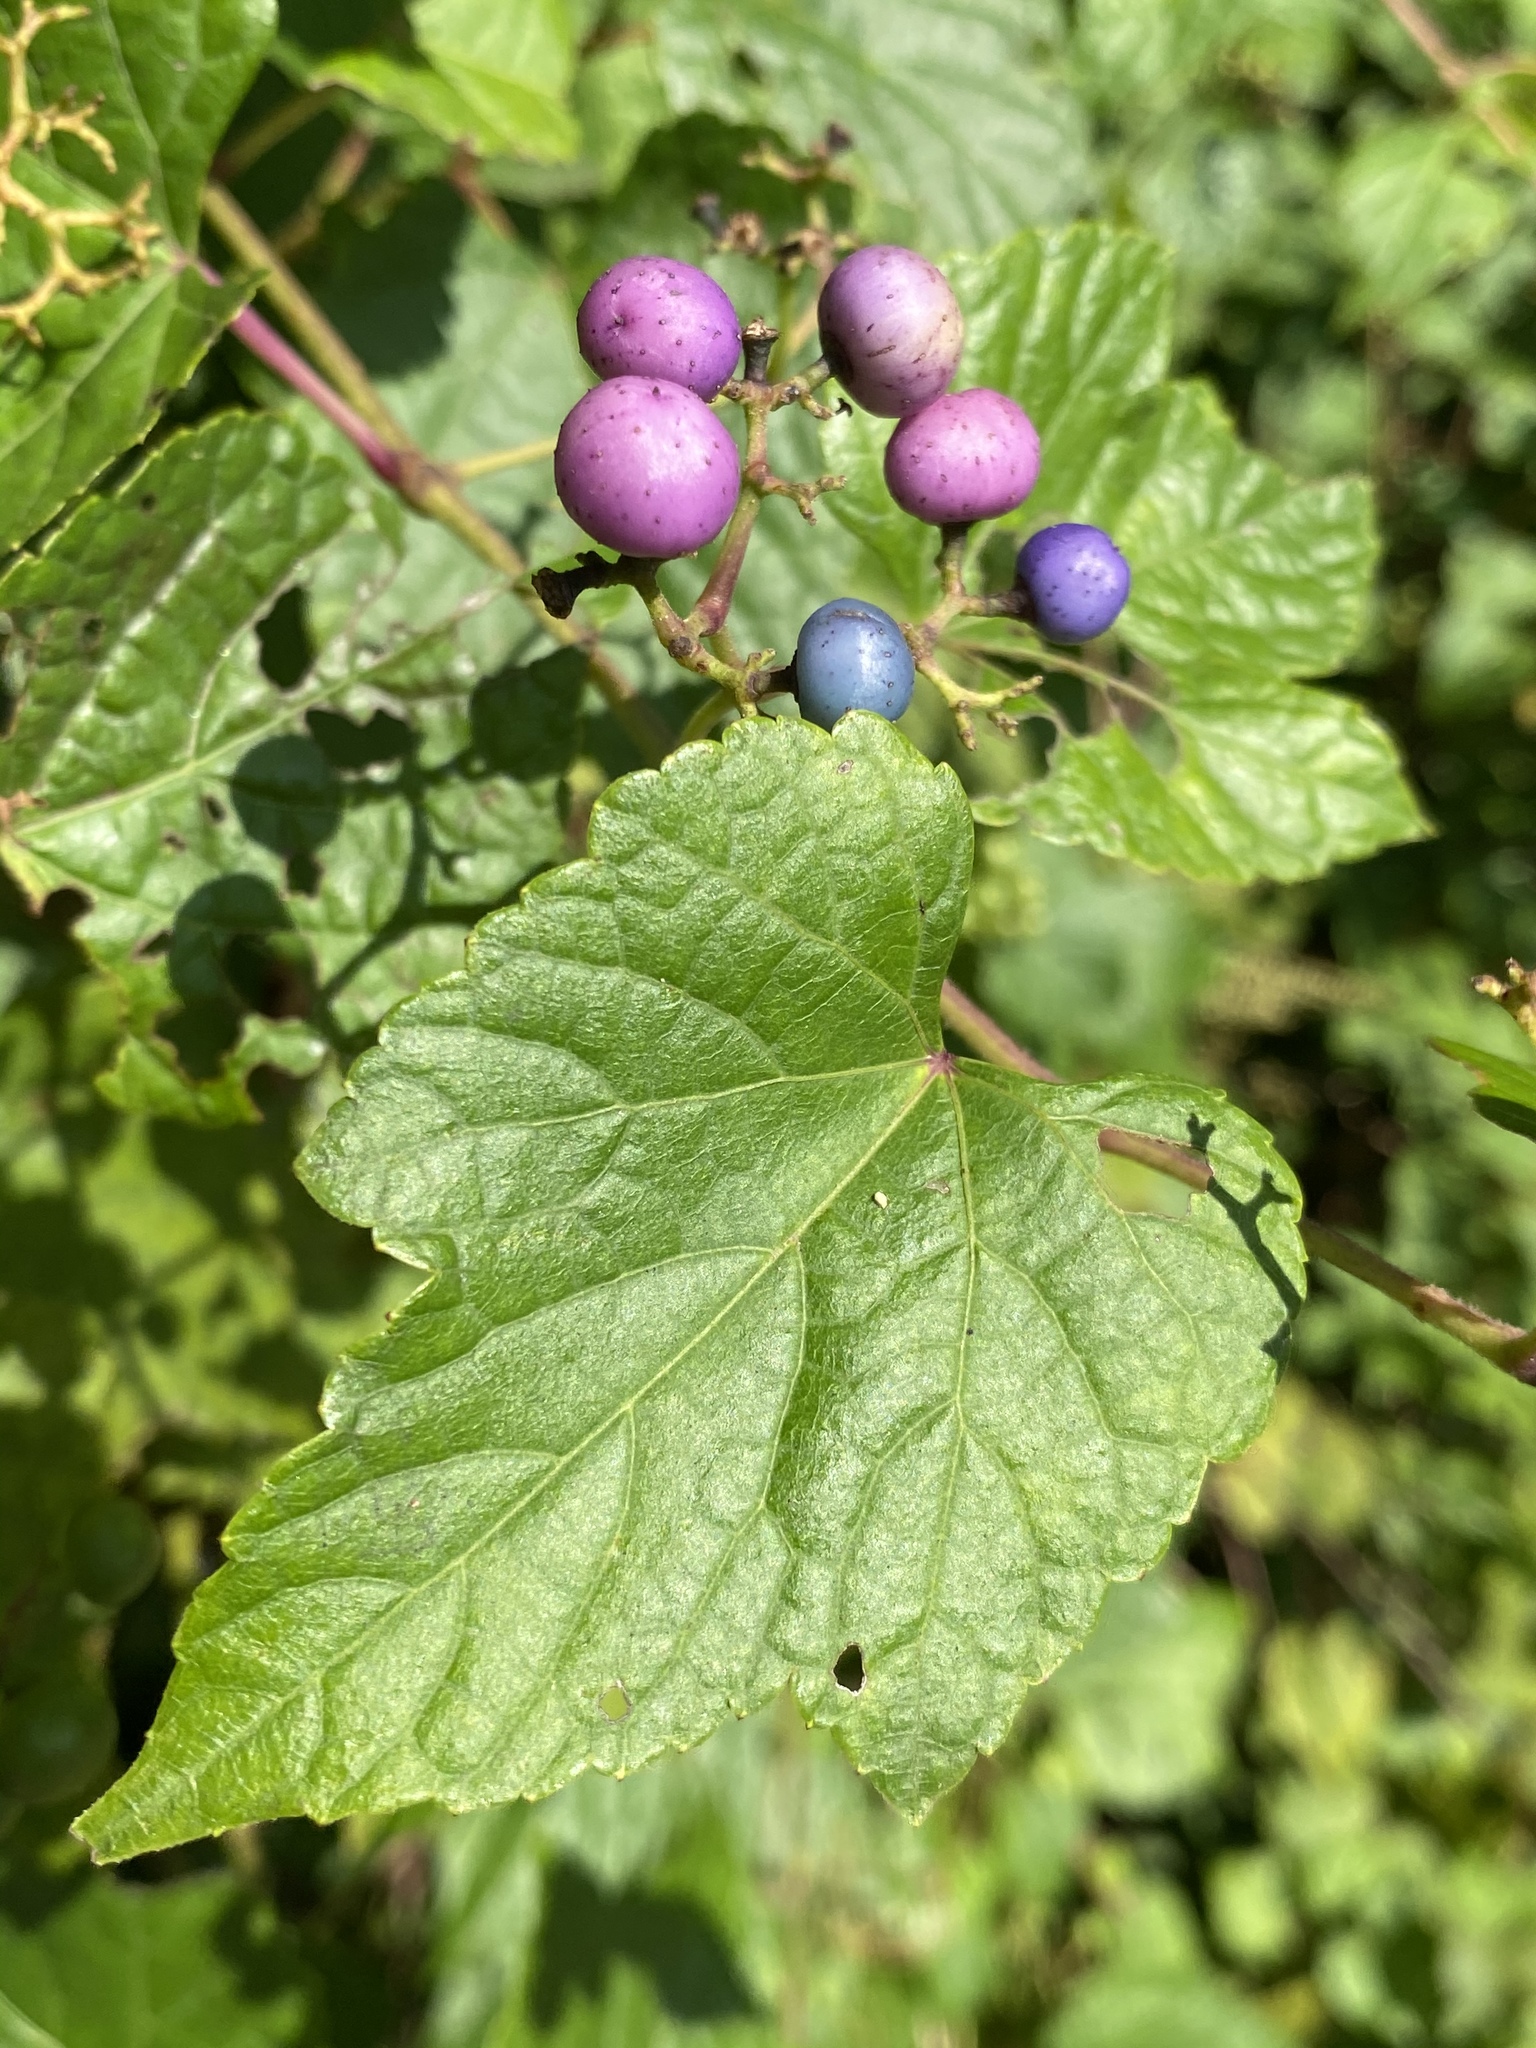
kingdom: Plantae
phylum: Tracheophyta
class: Magnoliopsida
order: Vitales
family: Vitaceae
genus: Ampelopsis
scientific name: Ampelopsis glandulosa
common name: Amur peppervine
